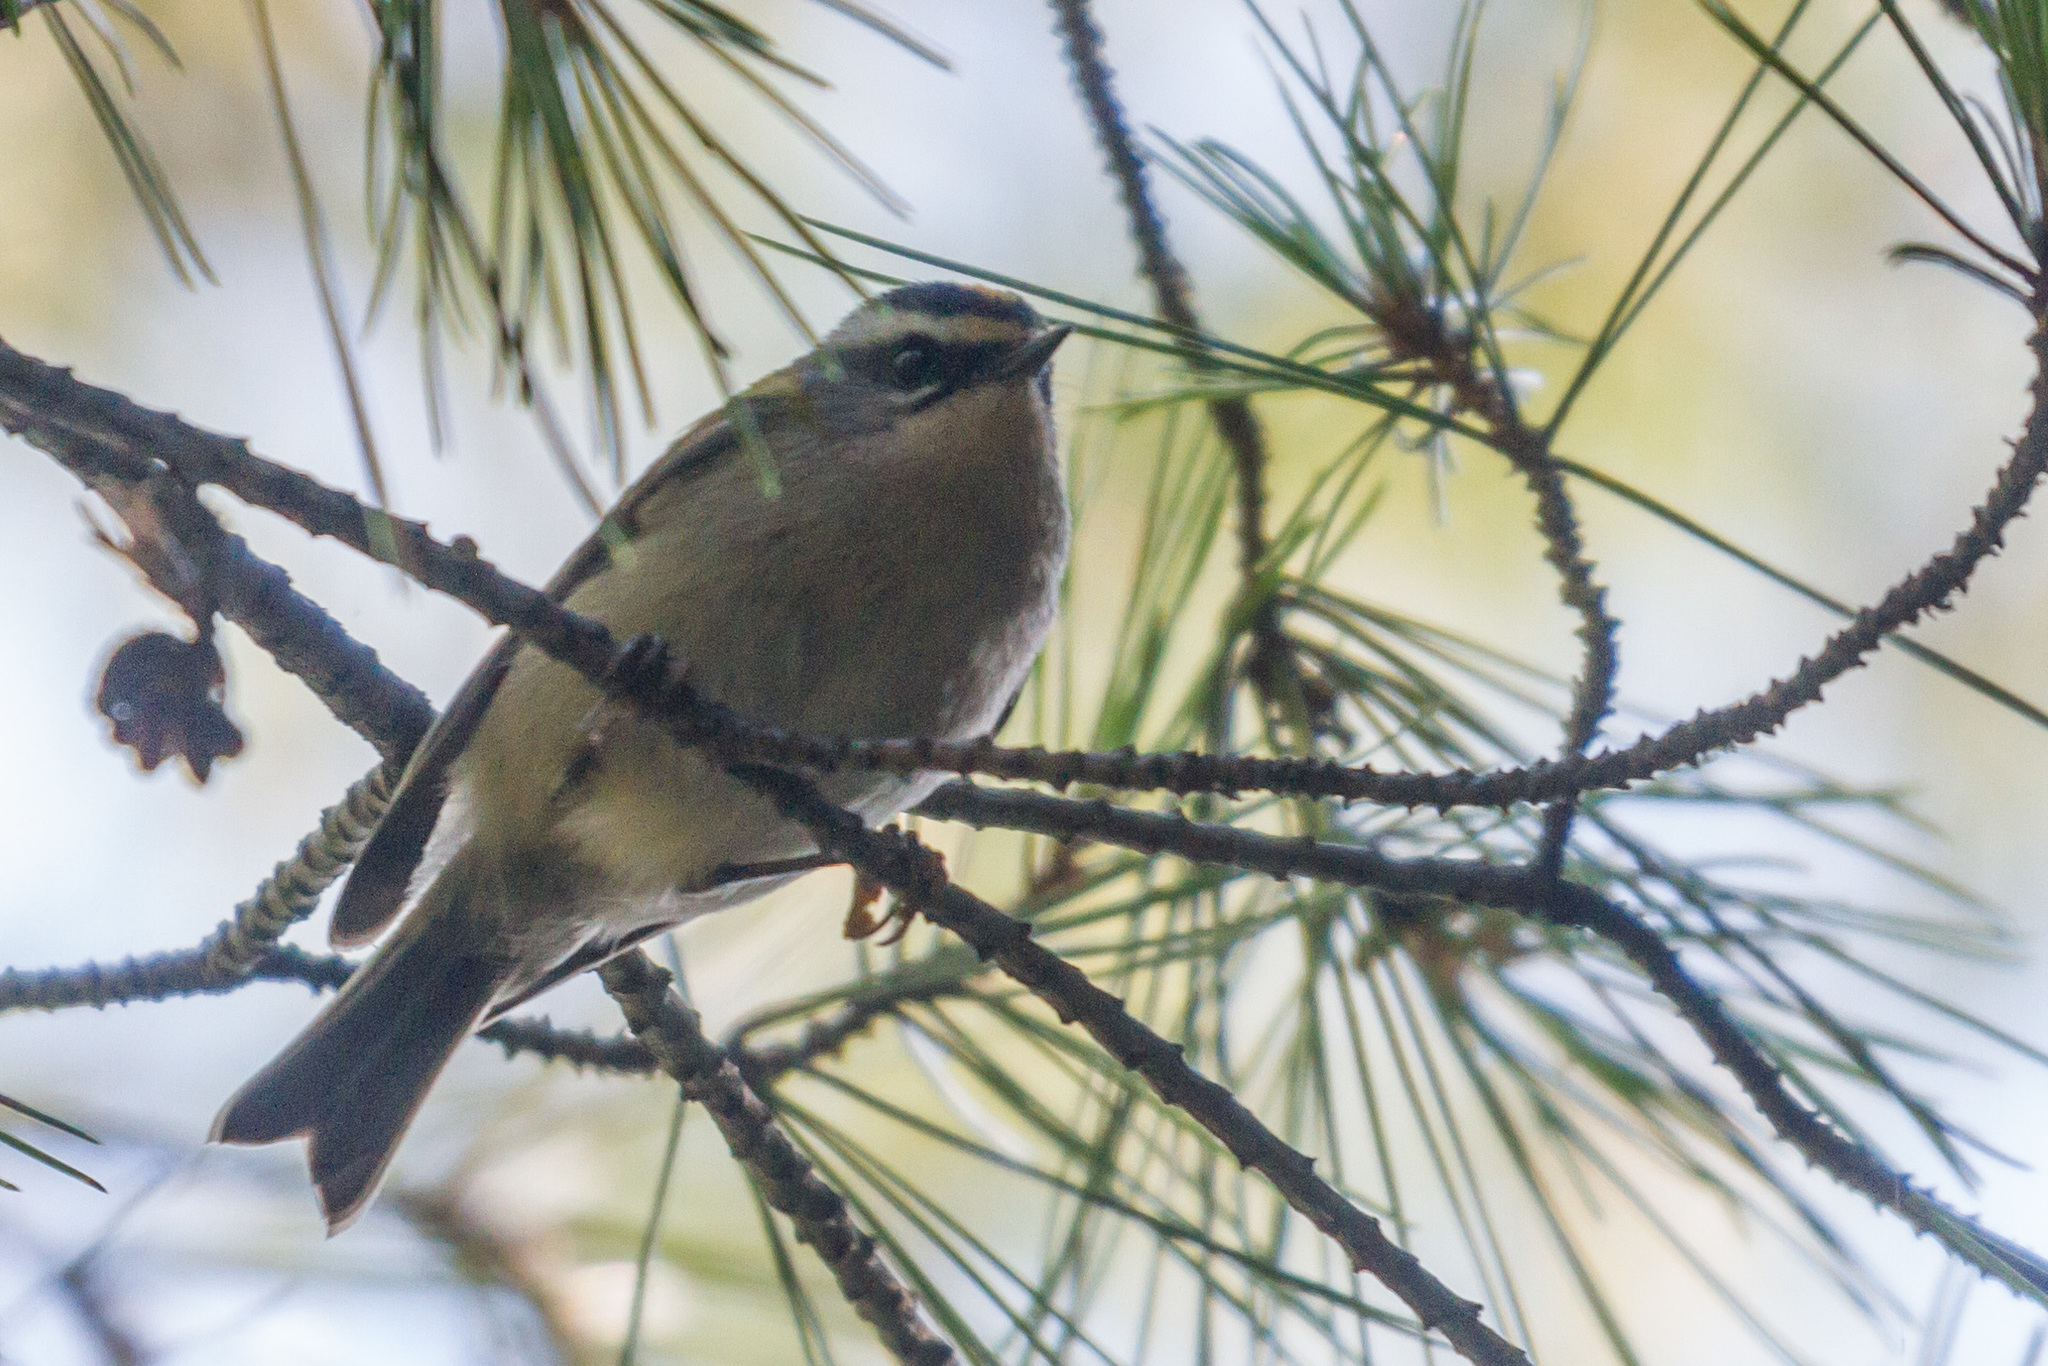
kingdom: Animalia
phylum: Chordata
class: Aves
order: Passeriformes
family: Regulidae
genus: Regulus
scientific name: Regulus ignicapilla
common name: Firecrest
